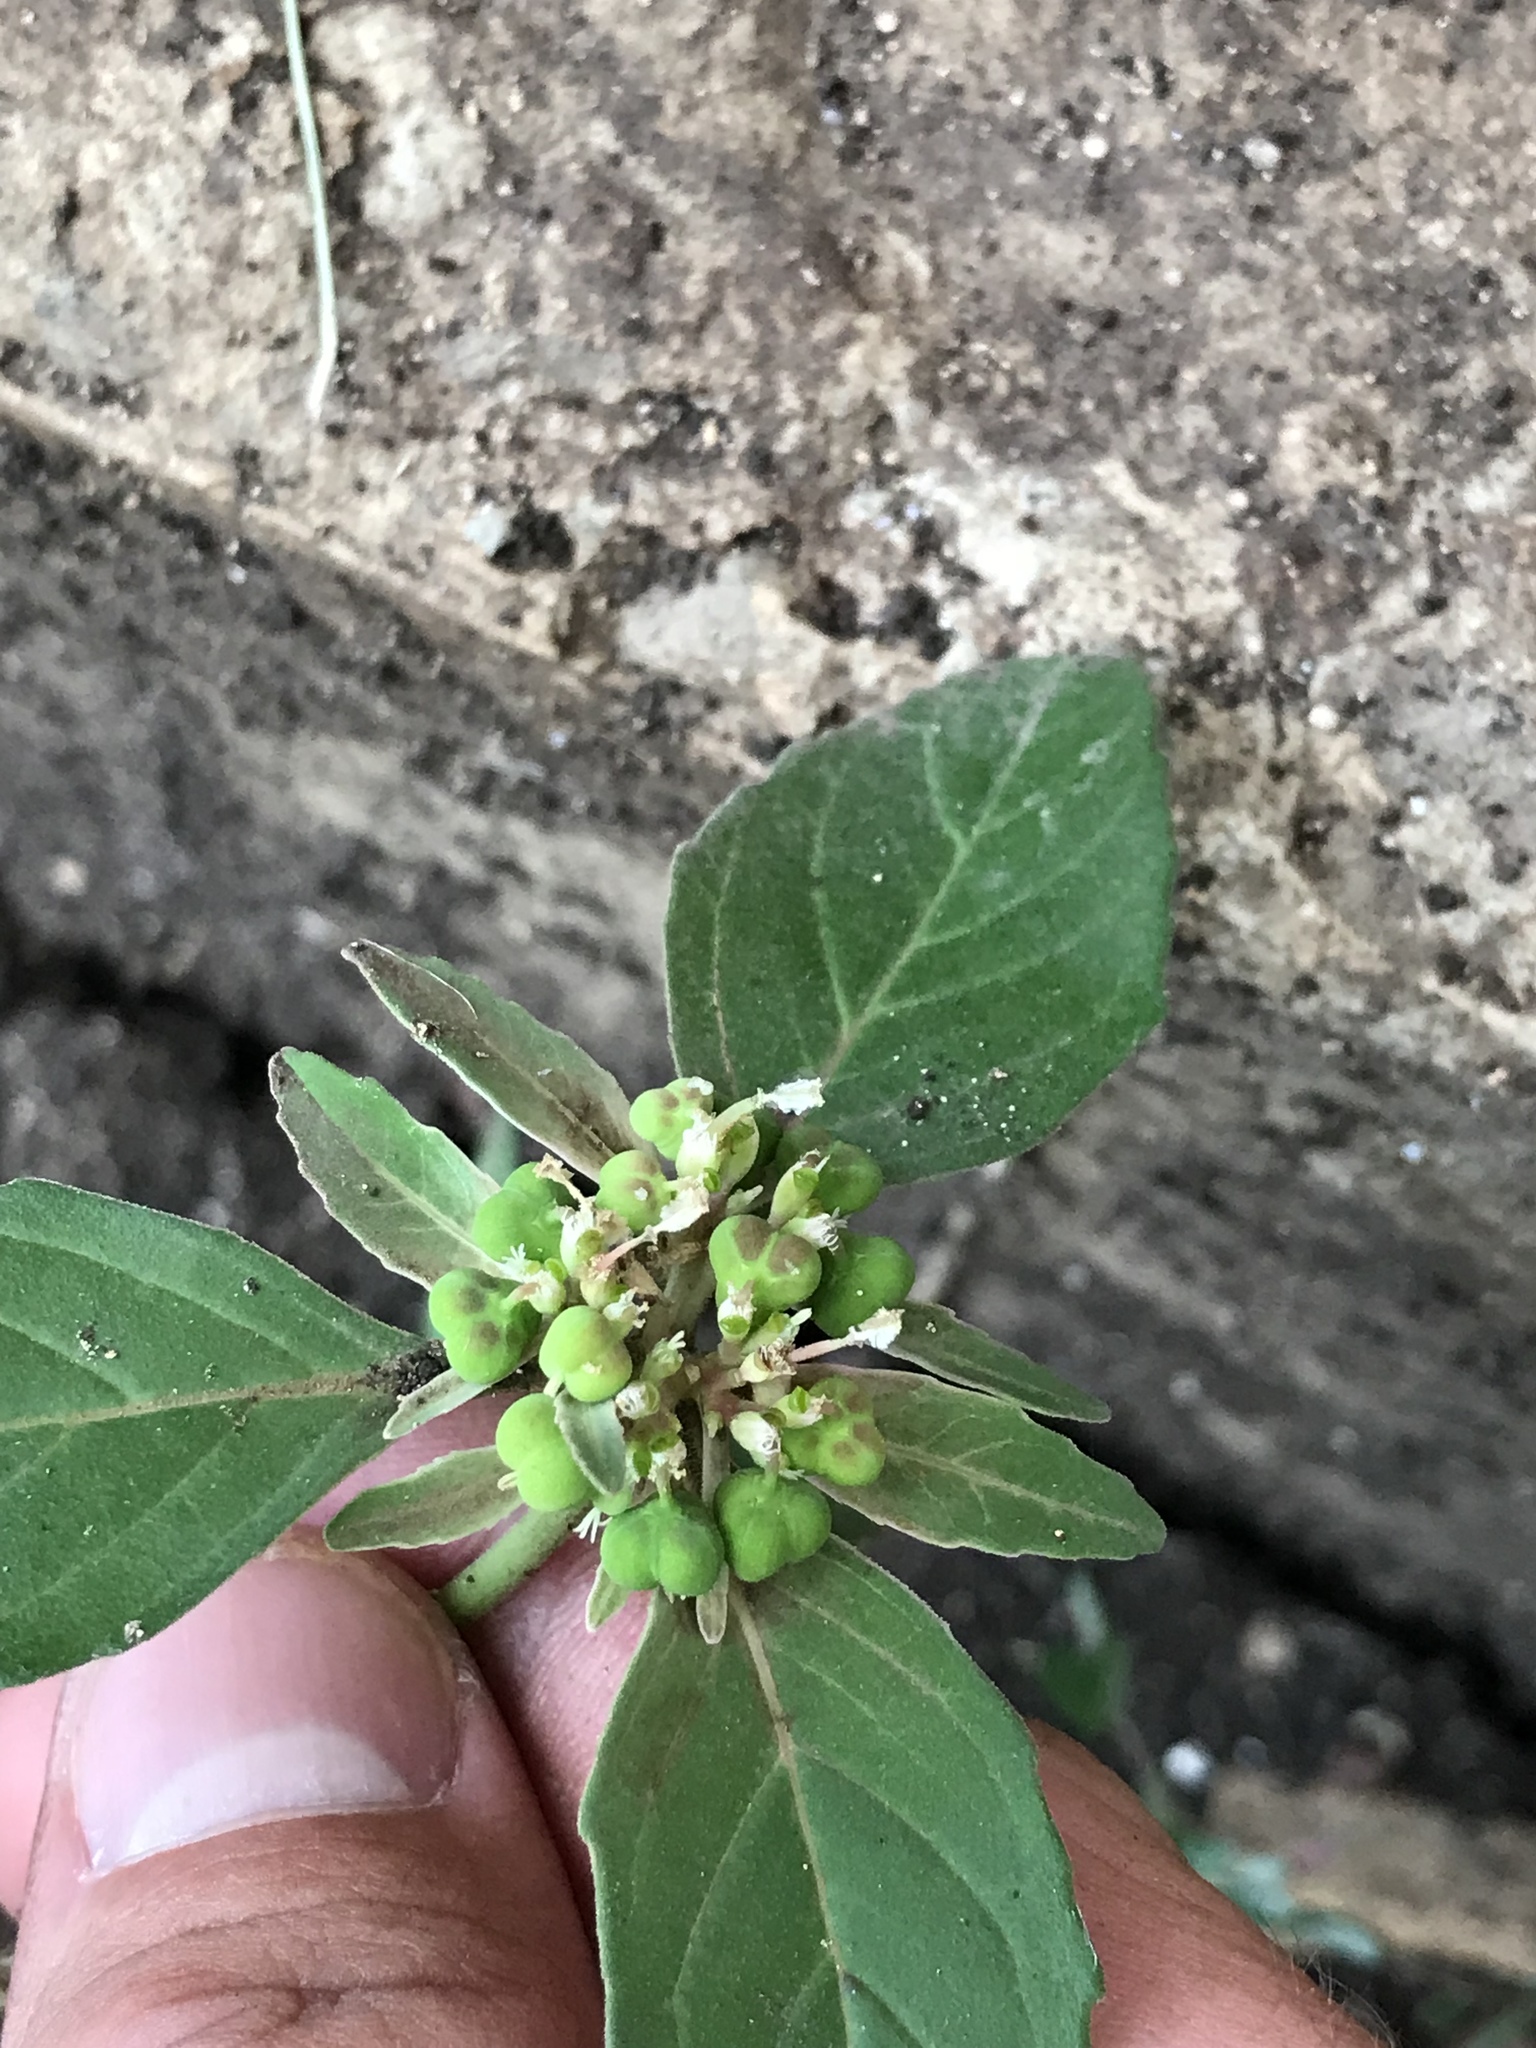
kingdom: Plantae
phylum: Tracheophyta
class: Magnoliopsida
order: Malpighiales
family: Euphorbiaceae
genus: Euphorbia
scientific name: Euphorbia dentata
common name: Dentate spurge
